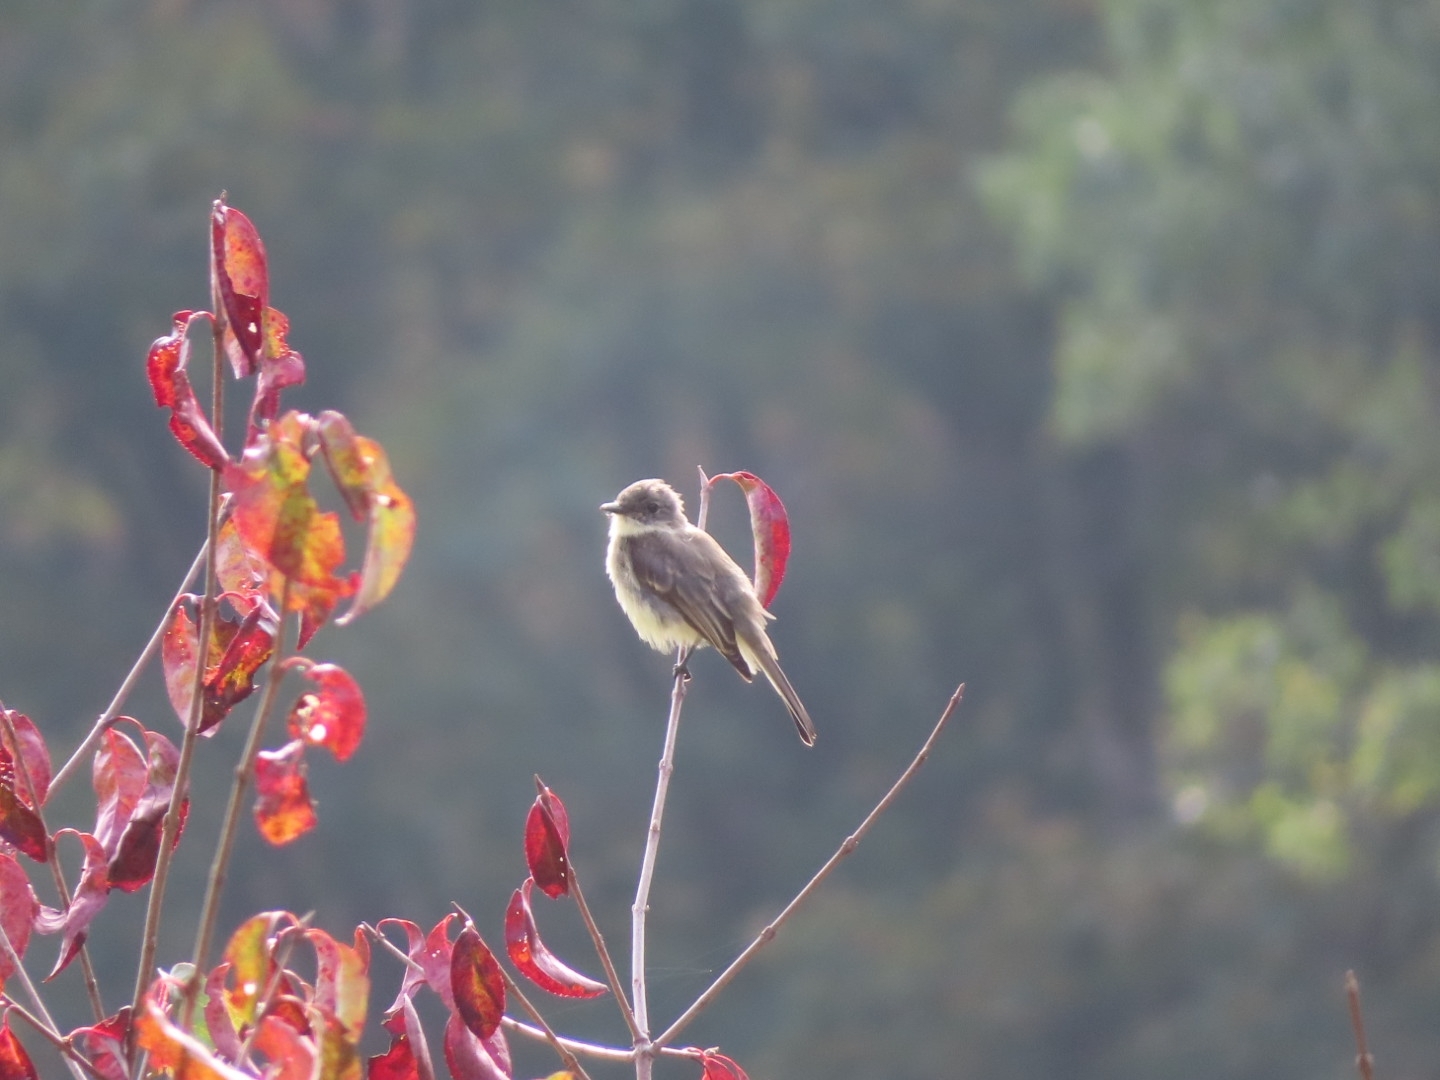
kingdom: Animalia
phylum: Chordata
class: Aves
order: Passeriformes
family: Tyrannidae
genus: Sayornis
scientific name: Sayornis phoebe
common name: Eastern phoebe
